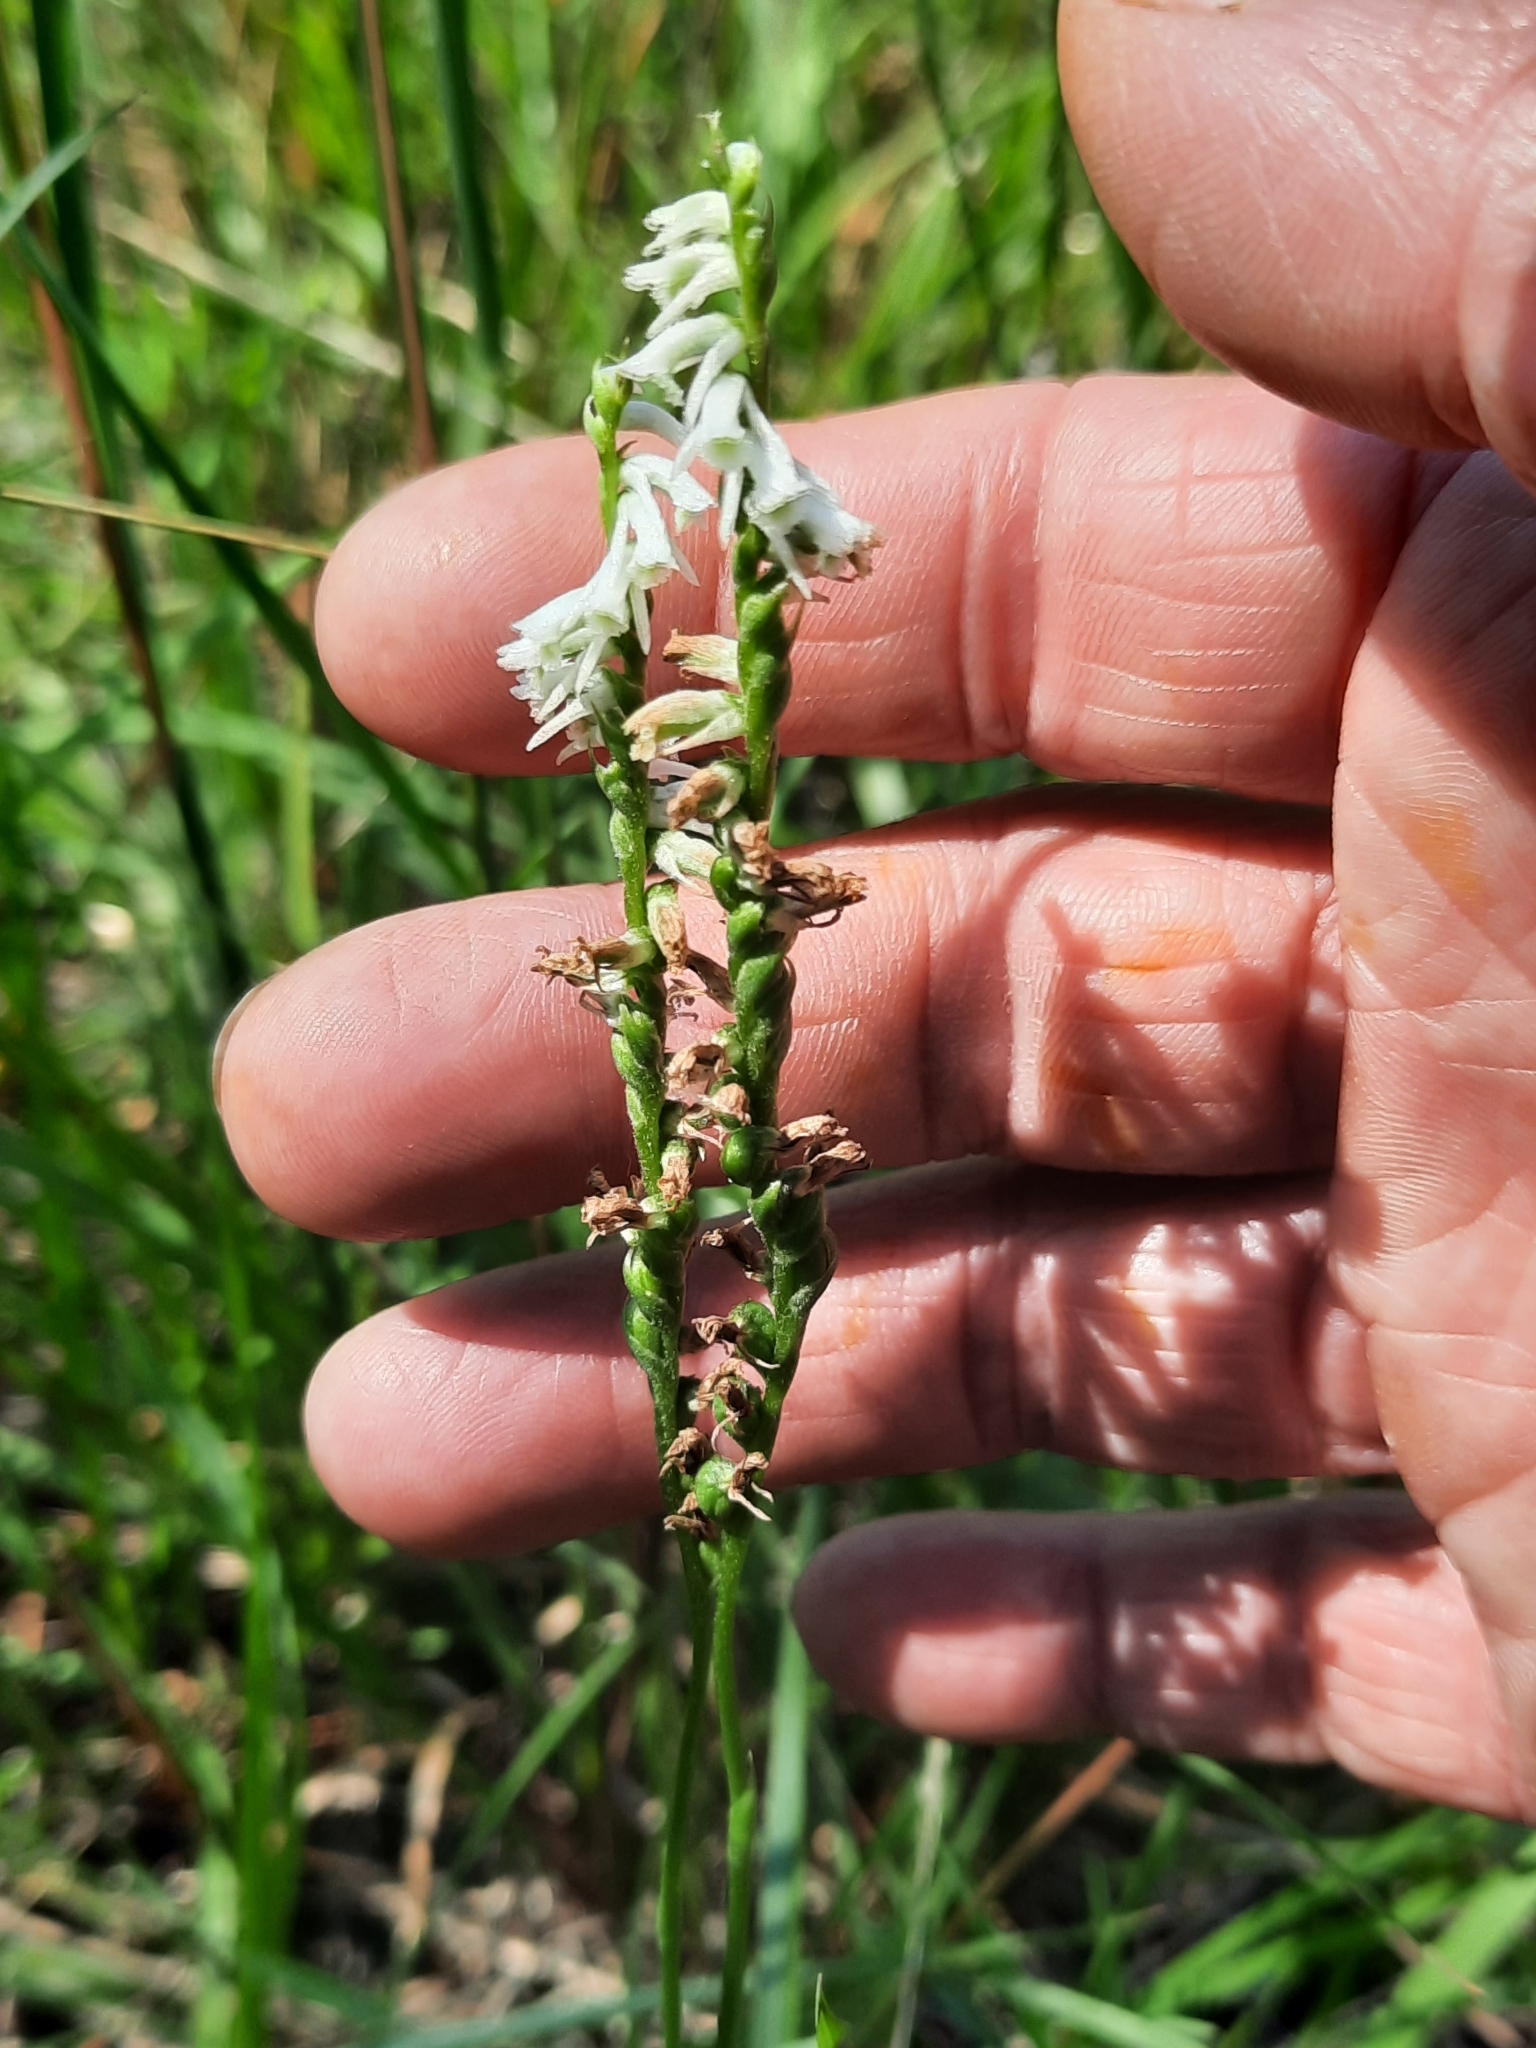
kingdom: Plantae
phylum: Tracheophyta
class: Liliopsida
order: Asparagales
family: Orchidaceae
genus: Spiranthes
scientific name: Spiranthes lacera
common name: Northern slender ladies'-tresses
